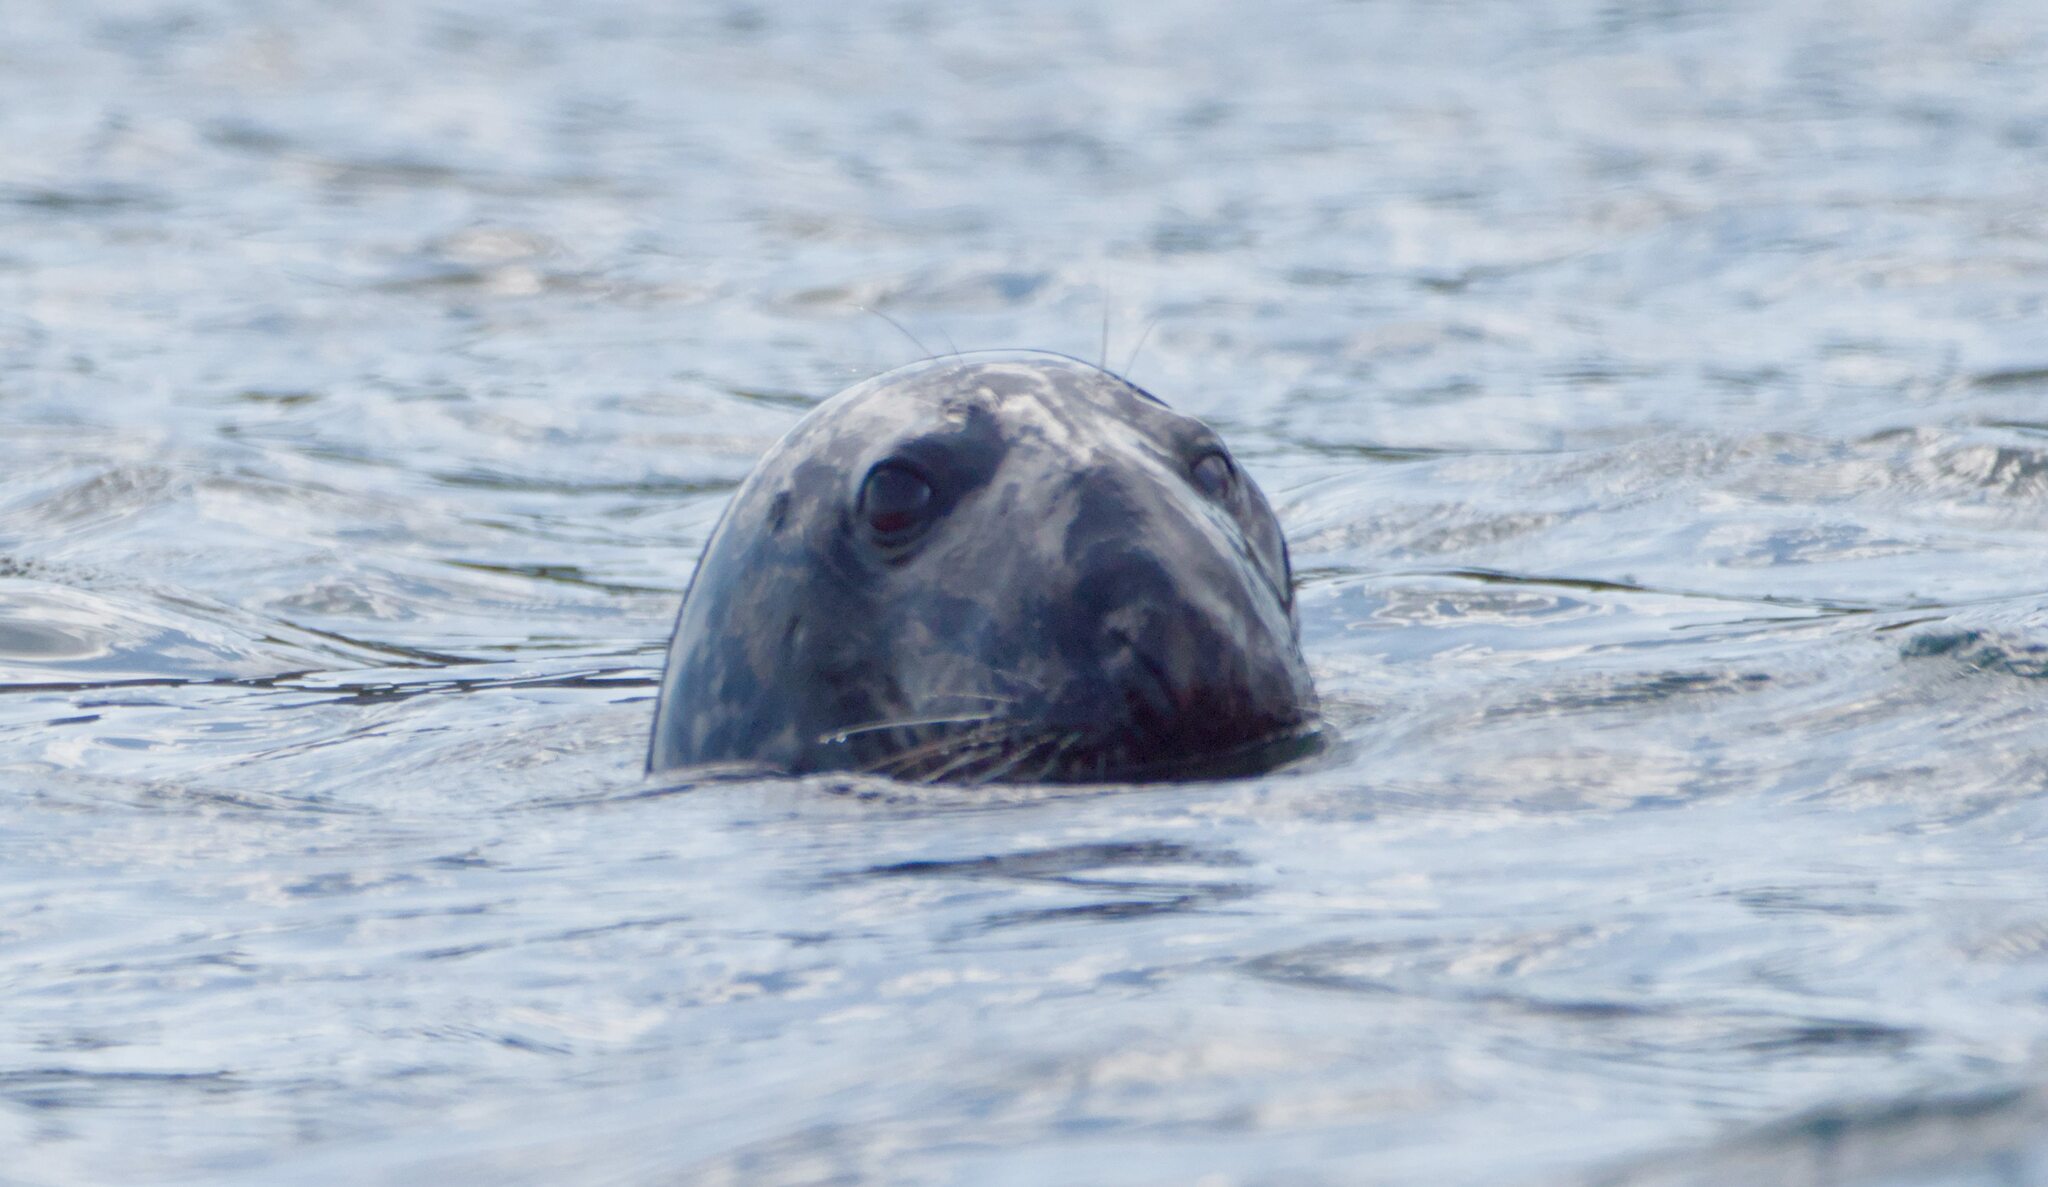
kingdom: Animalia
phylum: Chordata
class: Mammalia
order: Carnivora
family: Phocidae
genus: Halichoerus
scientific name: Halichoerus grypus
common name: Grey seal
